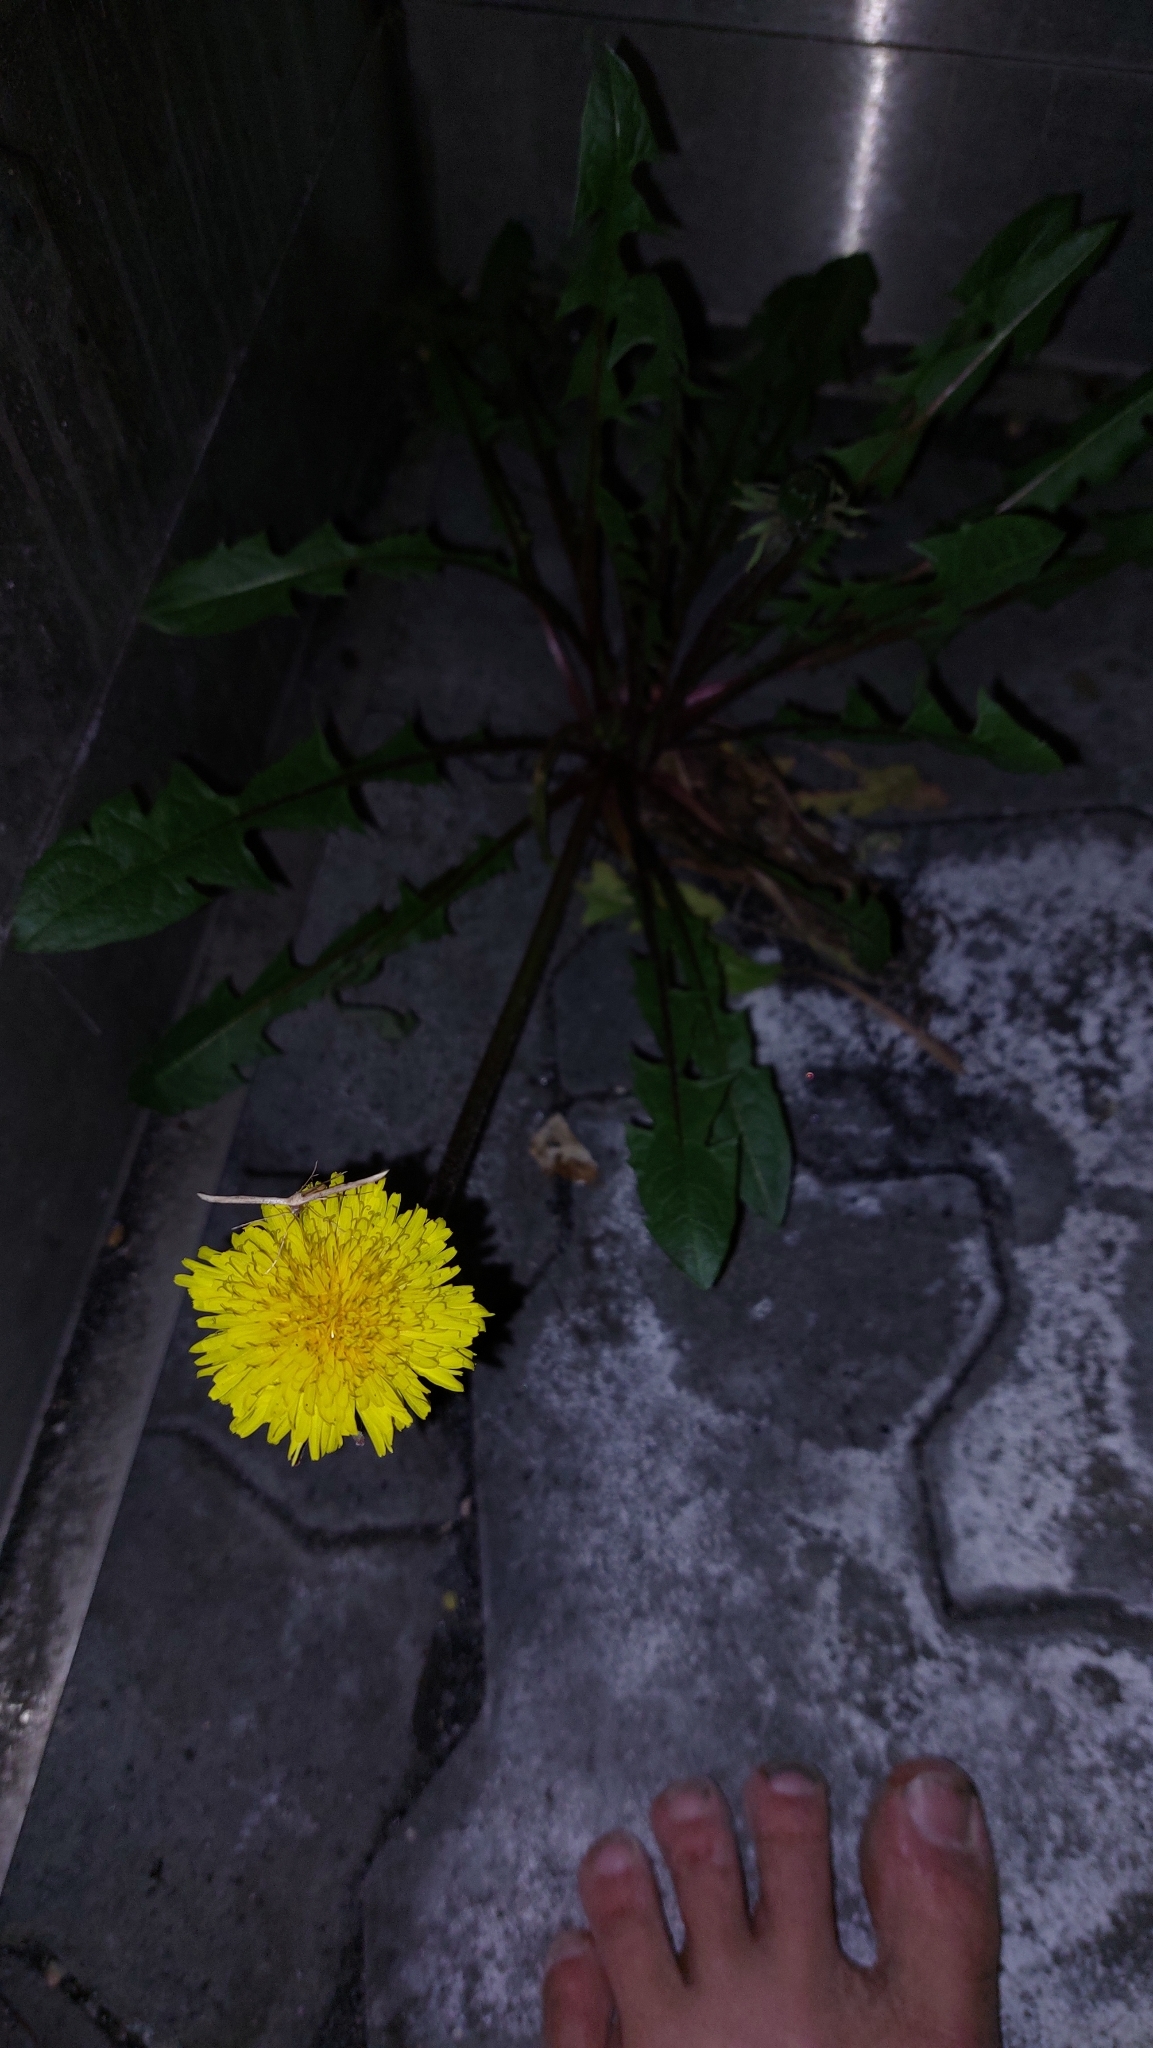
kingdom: Plantae
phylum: Tracheophyta
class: Magnoliopsida
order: Asterales
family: Asteraceae
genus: Taraxacum
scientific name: Taraxacum officinale
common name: Common dandelion
